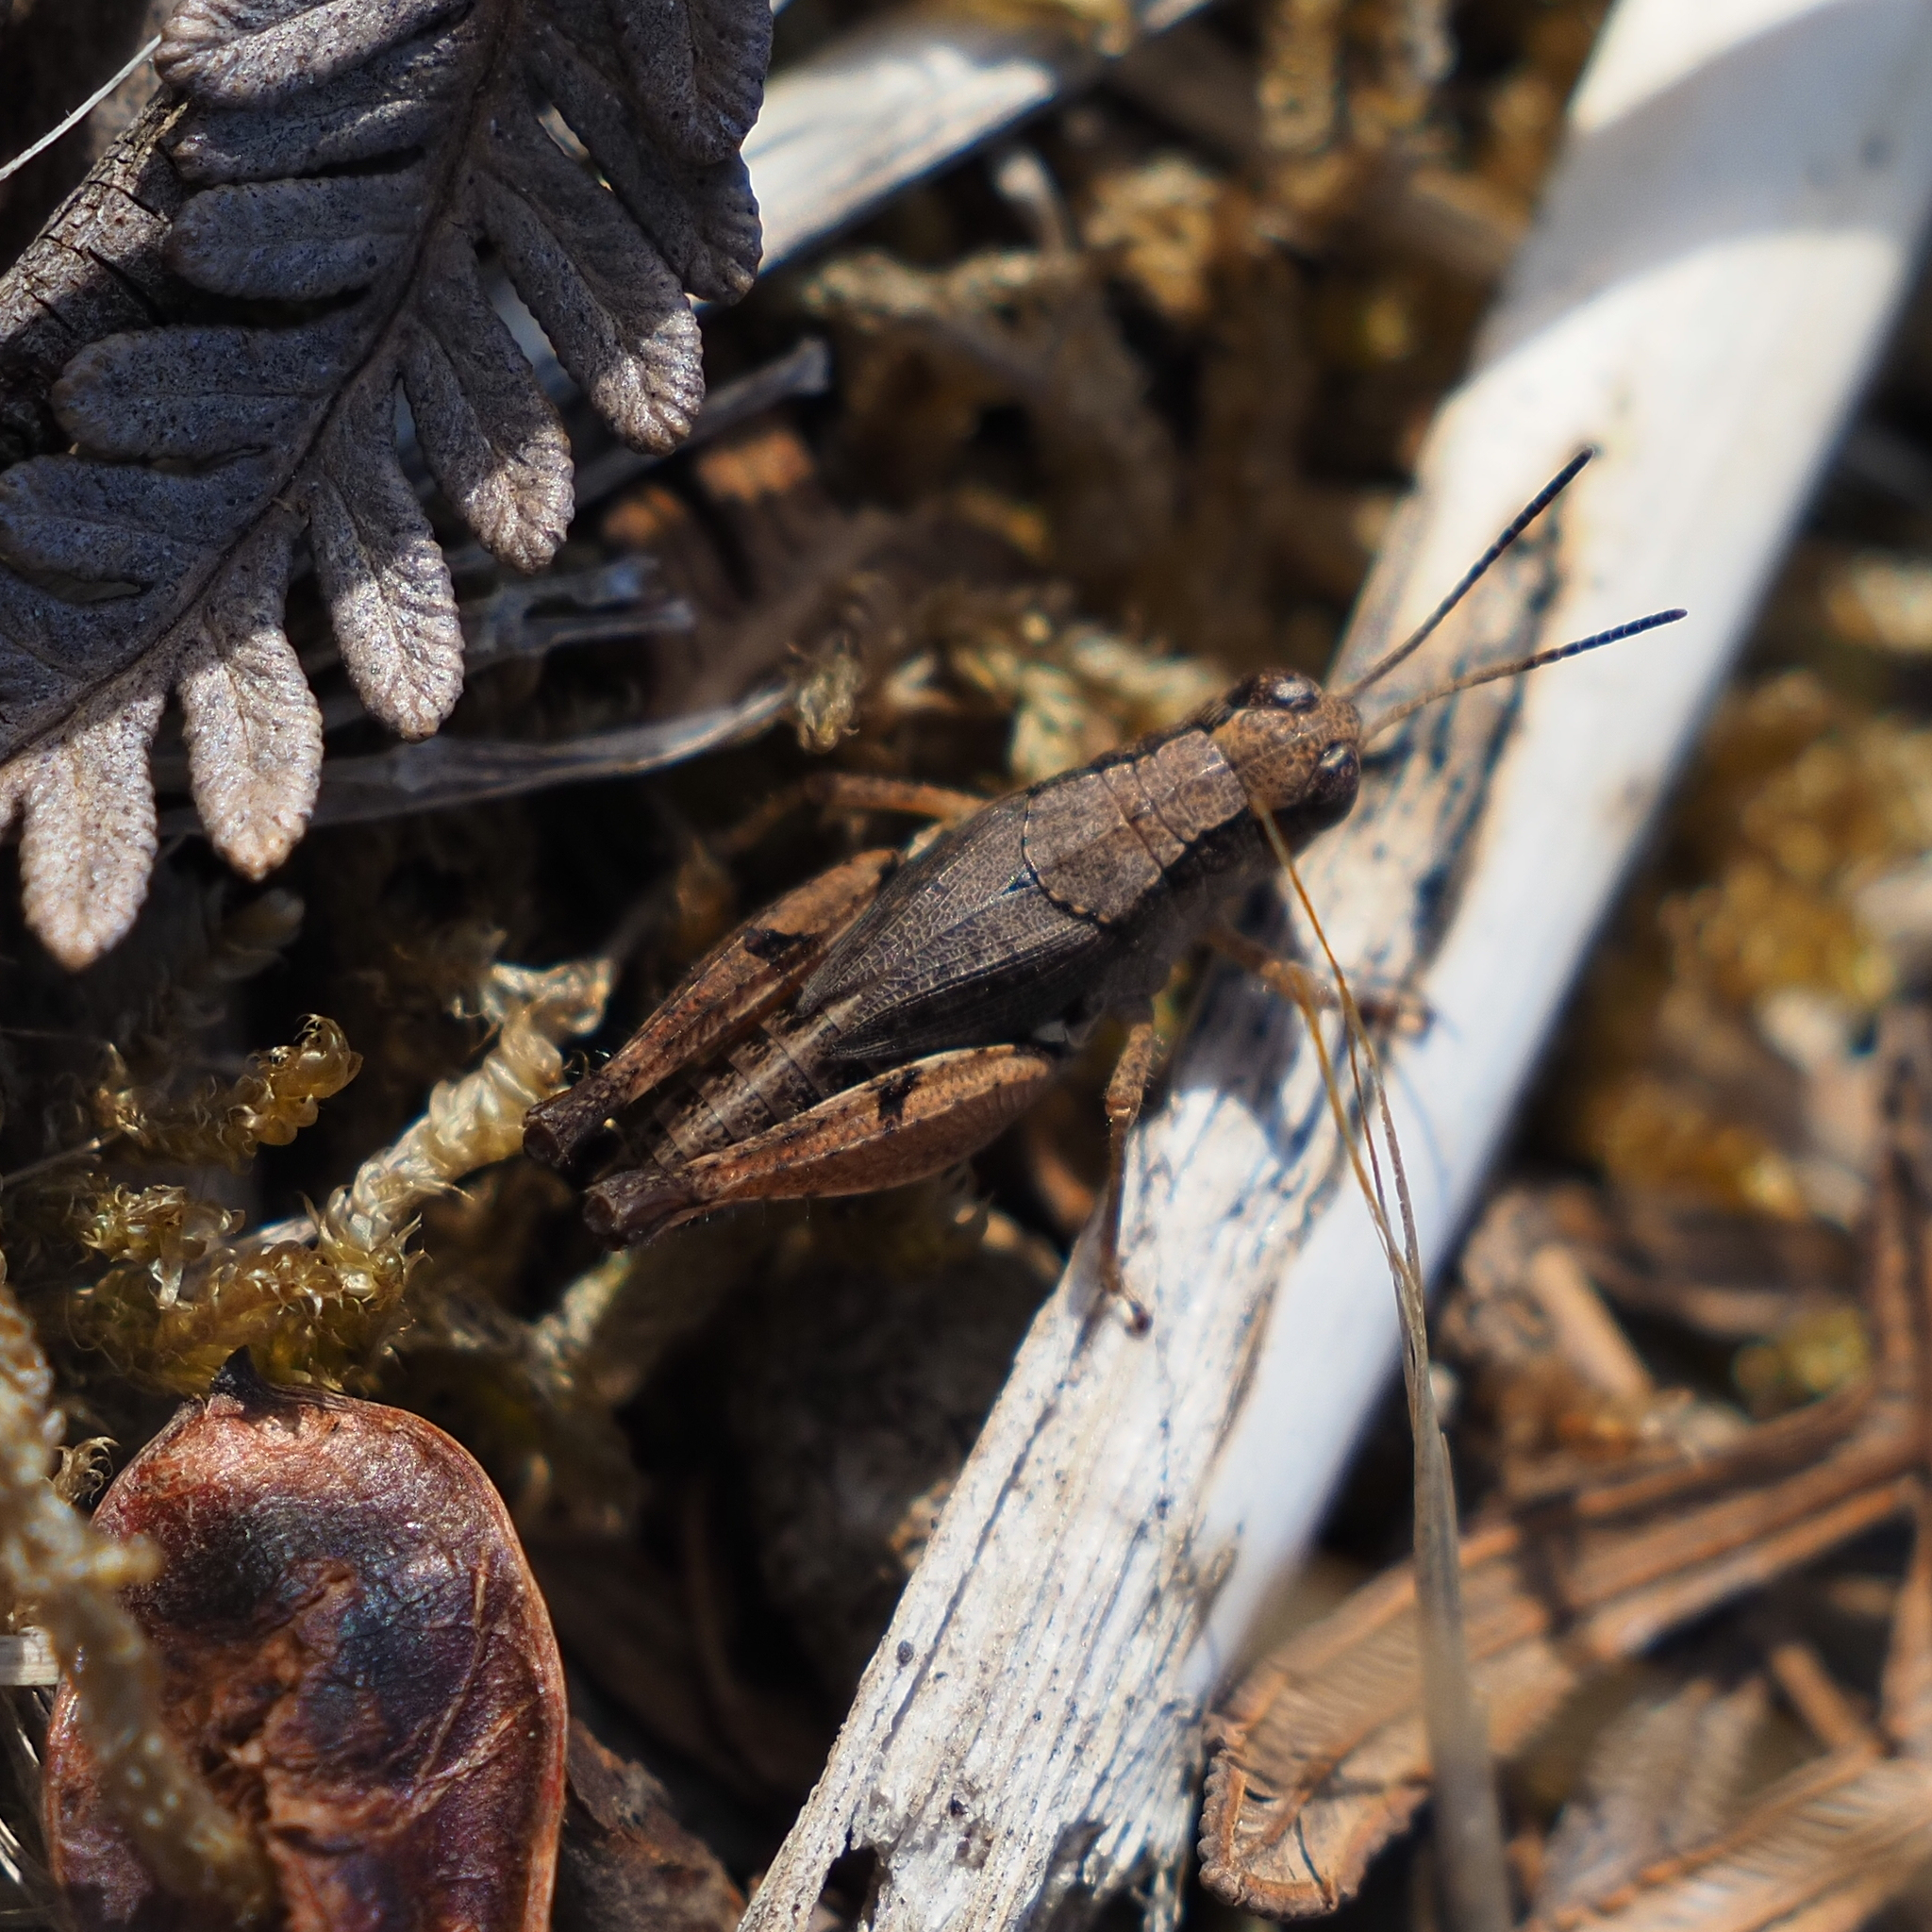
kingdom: Animalia
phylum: Arthropoda
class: Insecta
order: Orthoptera
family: Acrididae
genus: Phaulacridium
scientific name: Phaulacridium vittatum
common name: Wingless grasshopper
